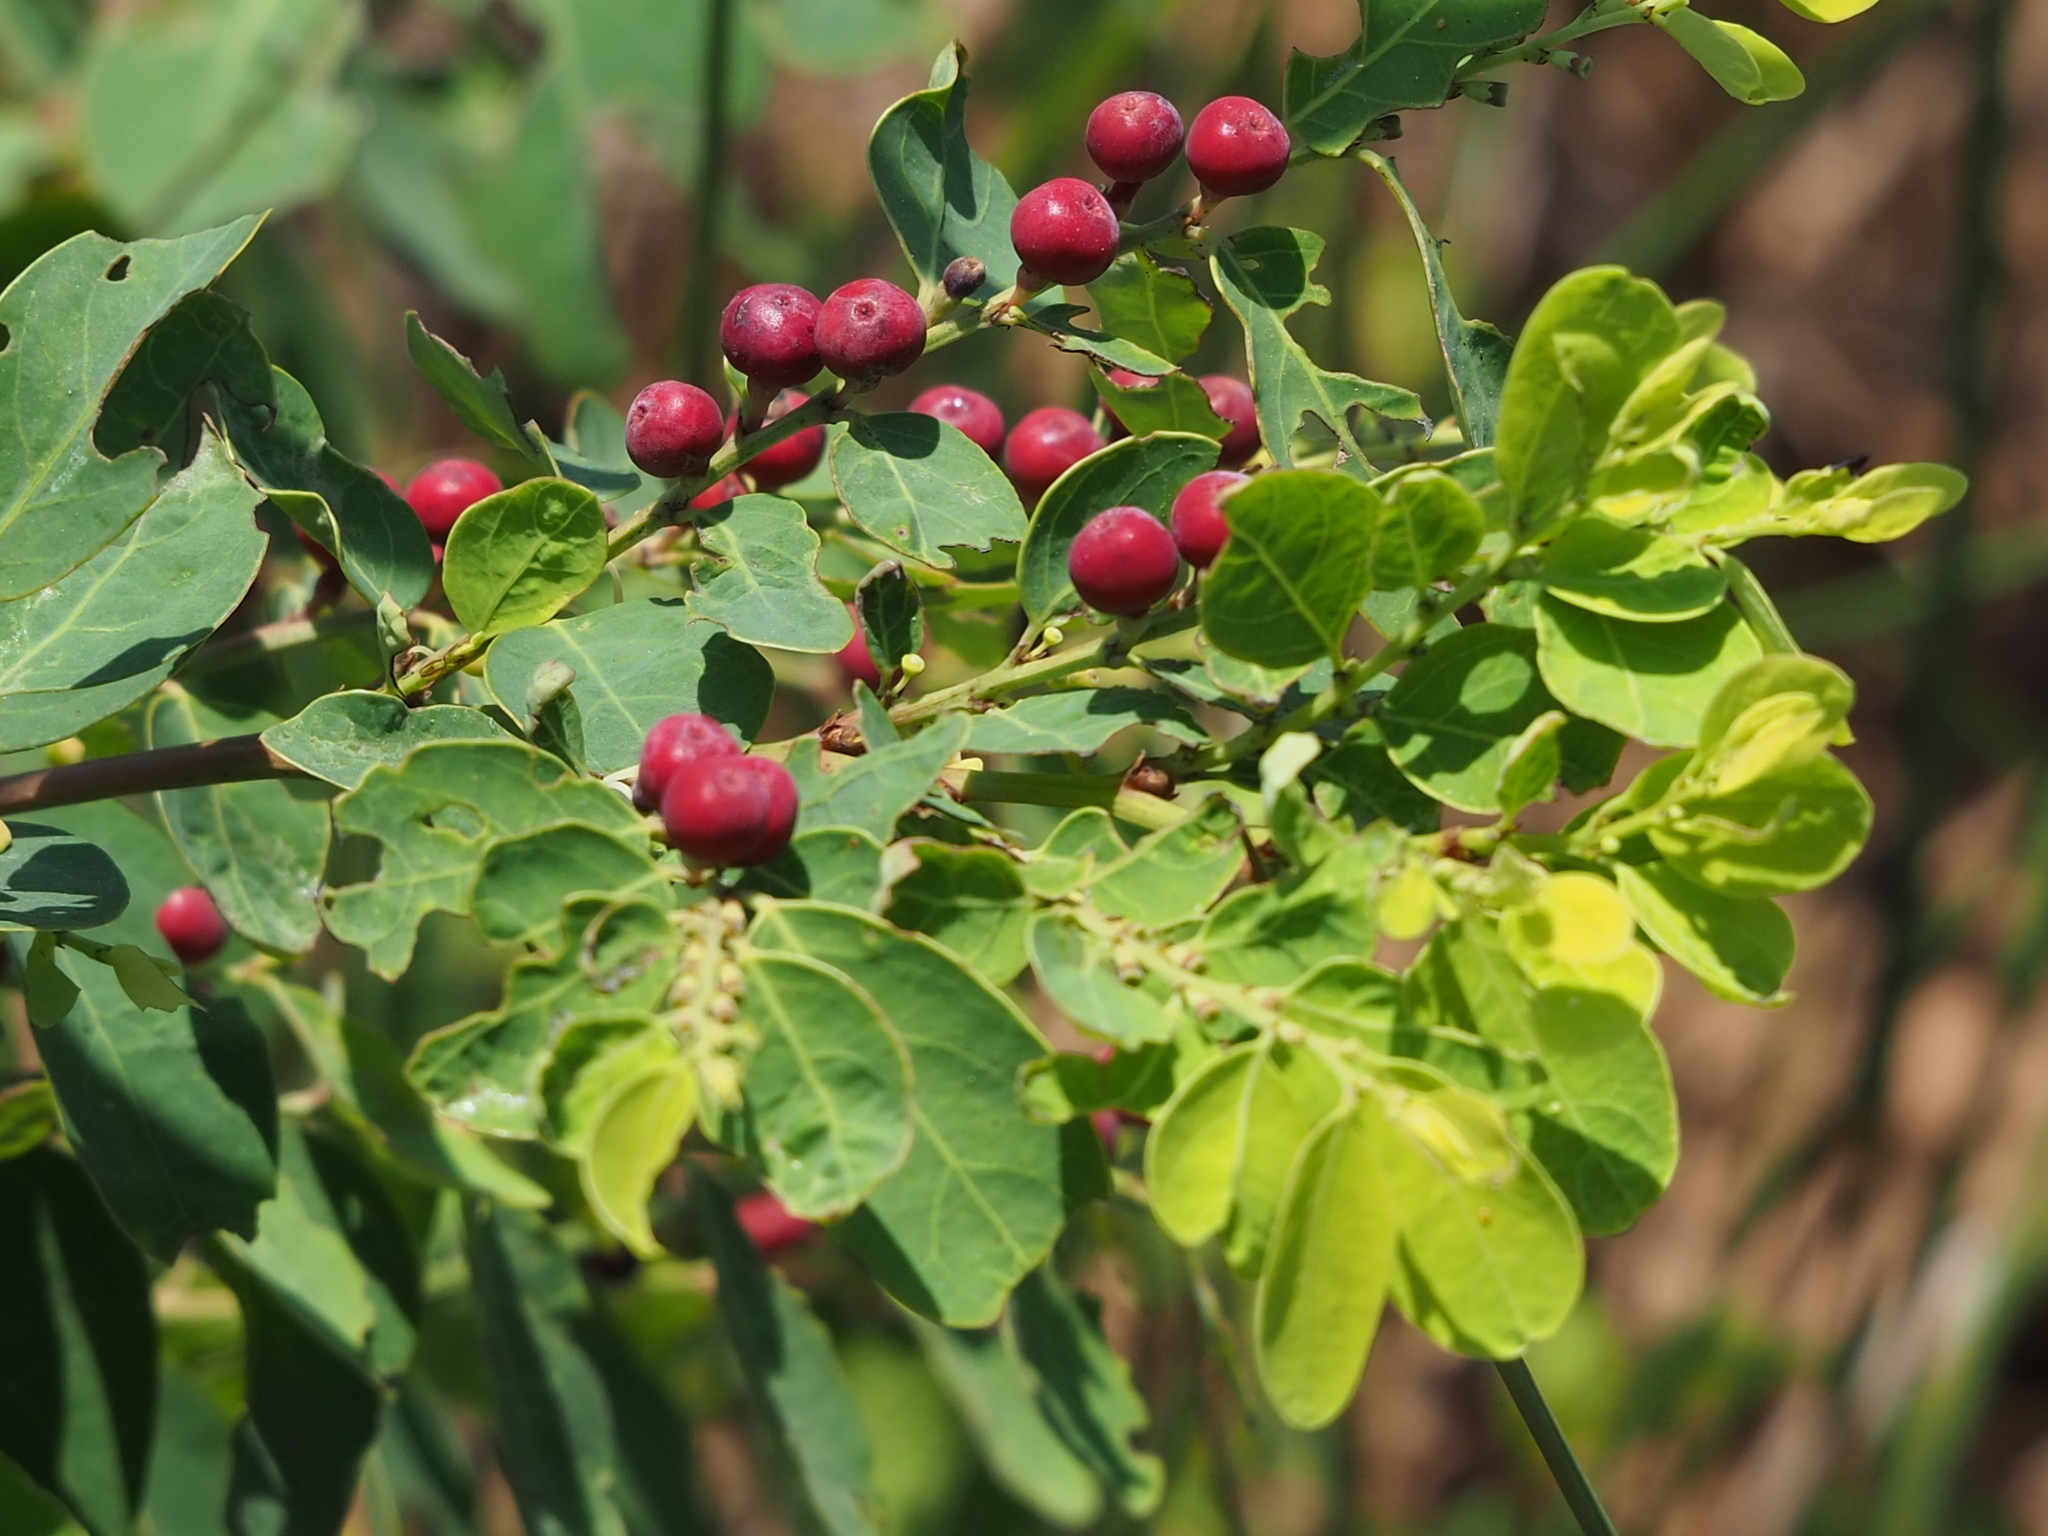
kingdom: Plantae
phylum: Tracheophyta
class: Magnoliopsida
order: Malpighiales
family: Phyllanthaceae
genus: Breynia
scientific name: Breynia vitis-idaea
